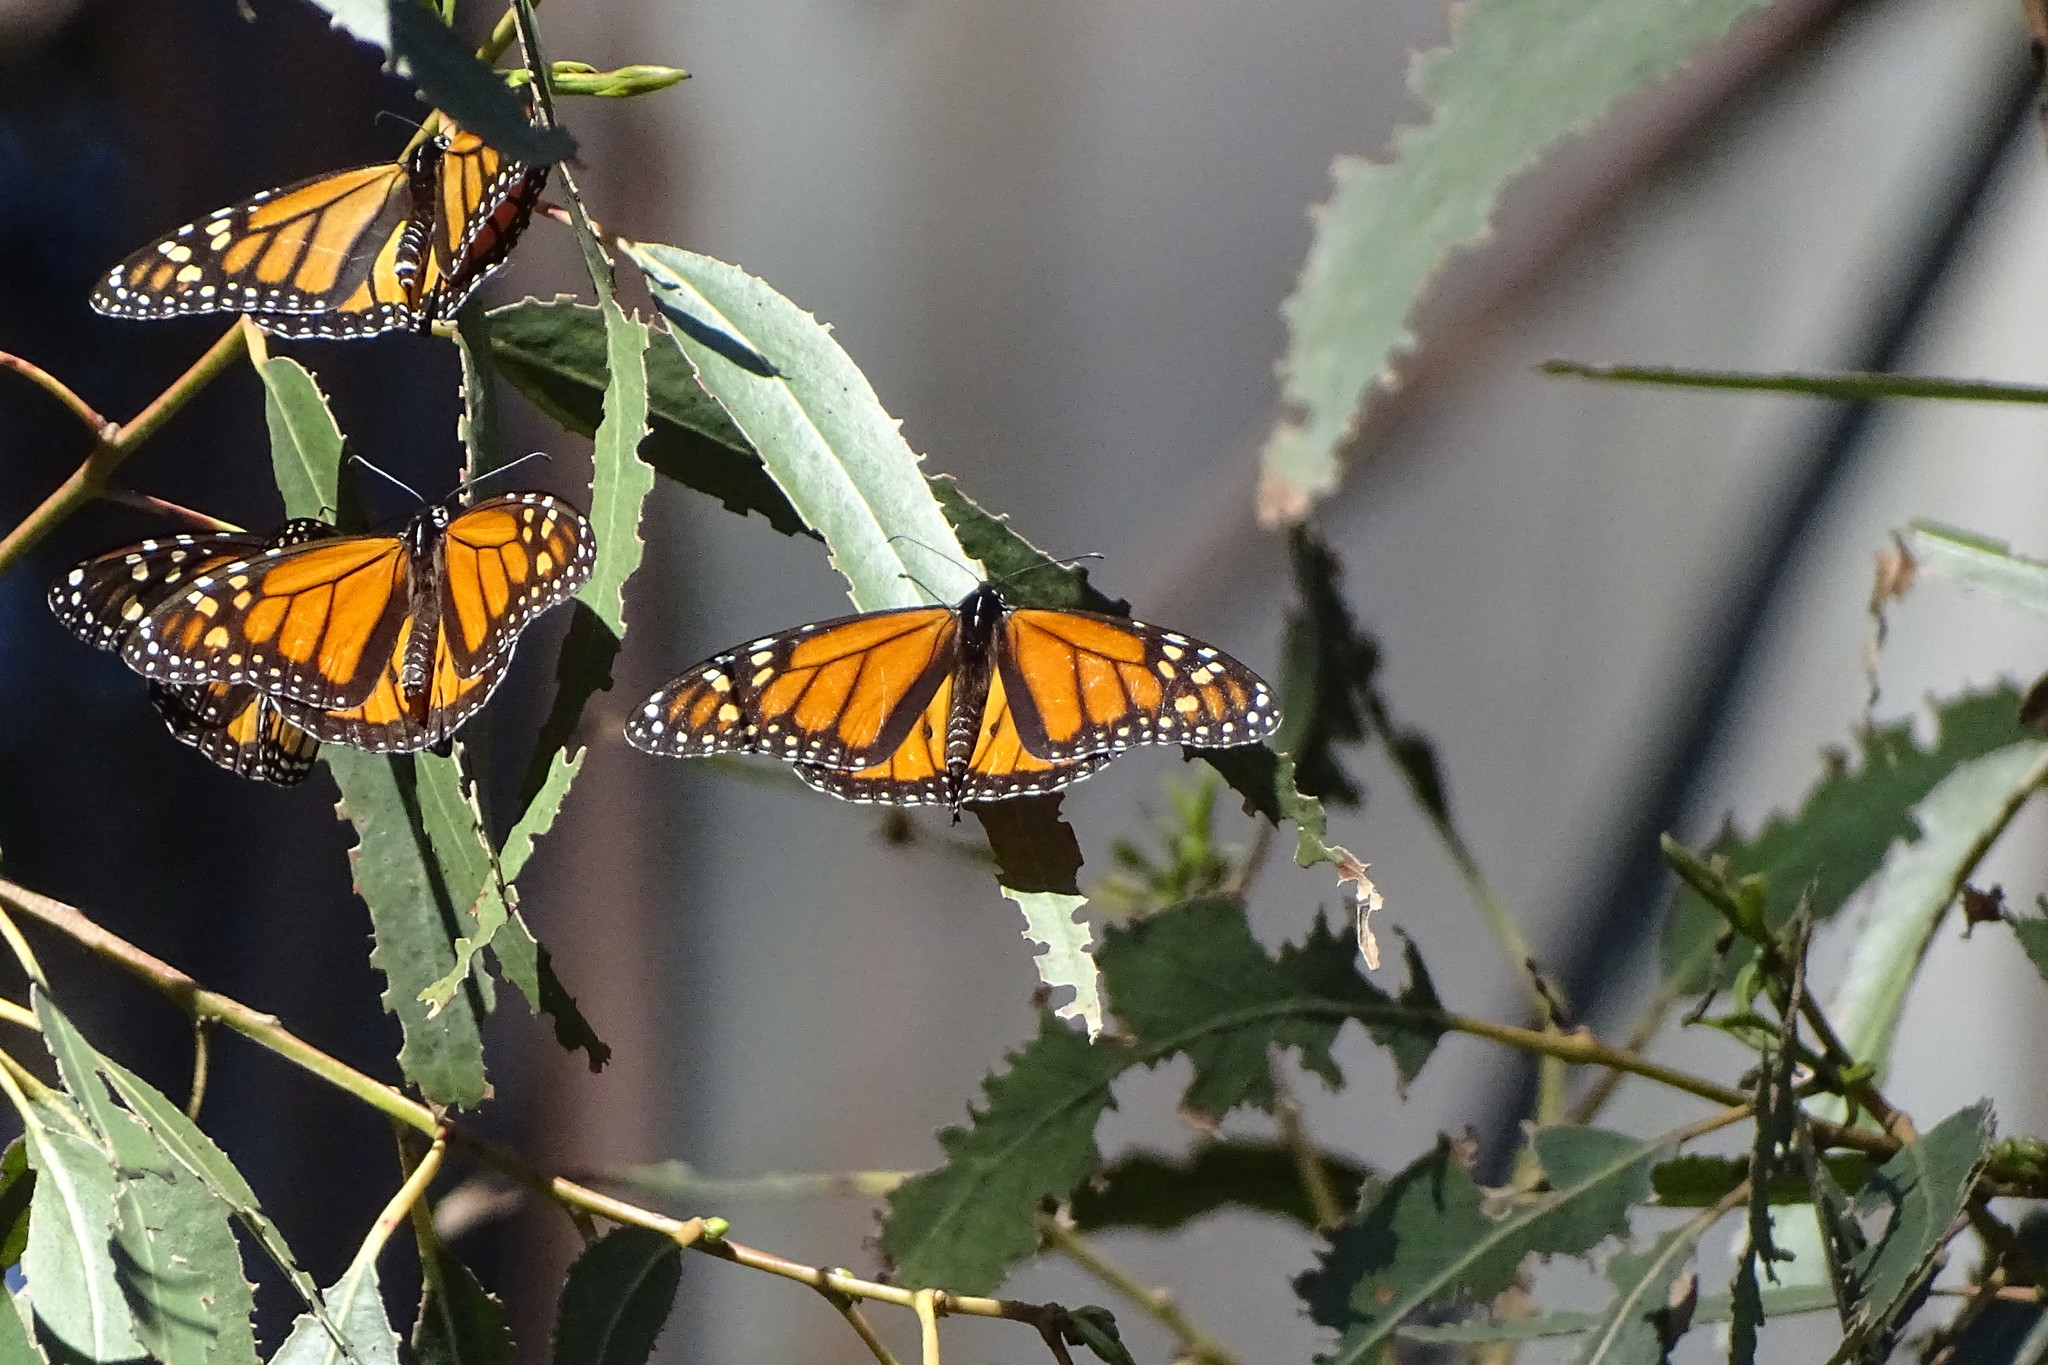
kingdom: Animalia
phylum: Arthropoda
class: Insecta
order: Lepidoptera
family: Nymphalidae
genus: Danaus
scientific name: Danaus plexippus
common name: Monarch
